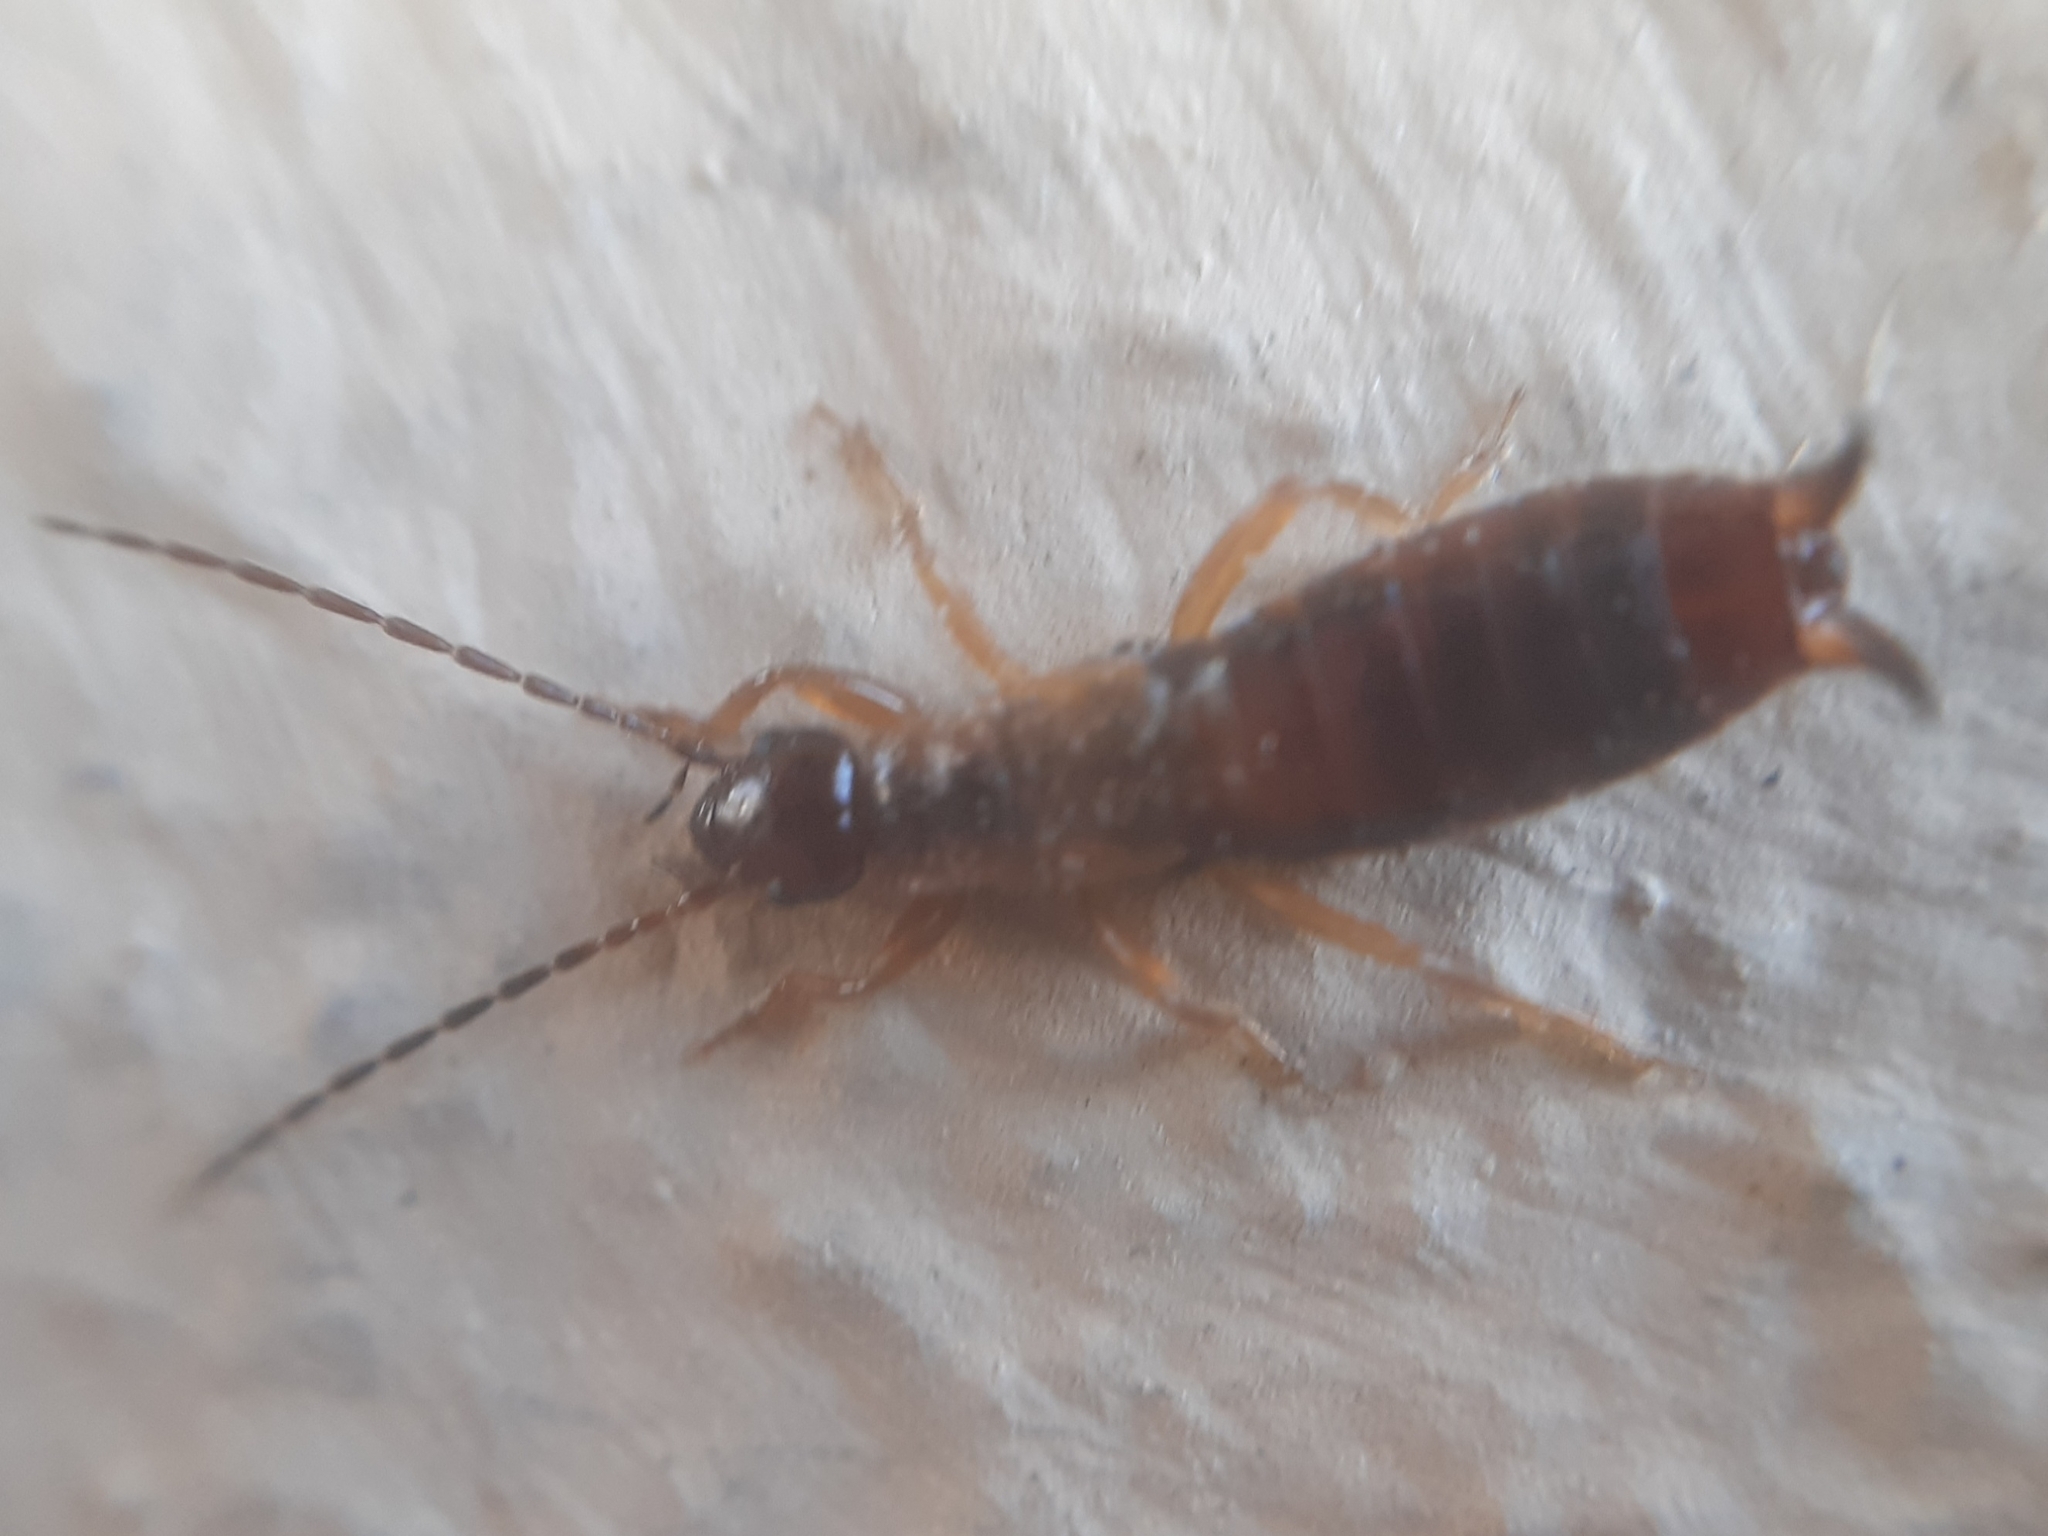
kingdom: Animalia
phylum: Arthropoda
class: Insecta
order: Dermaptera
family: Forficulidae
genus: Apterygida
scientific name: Apterygida albipennis
